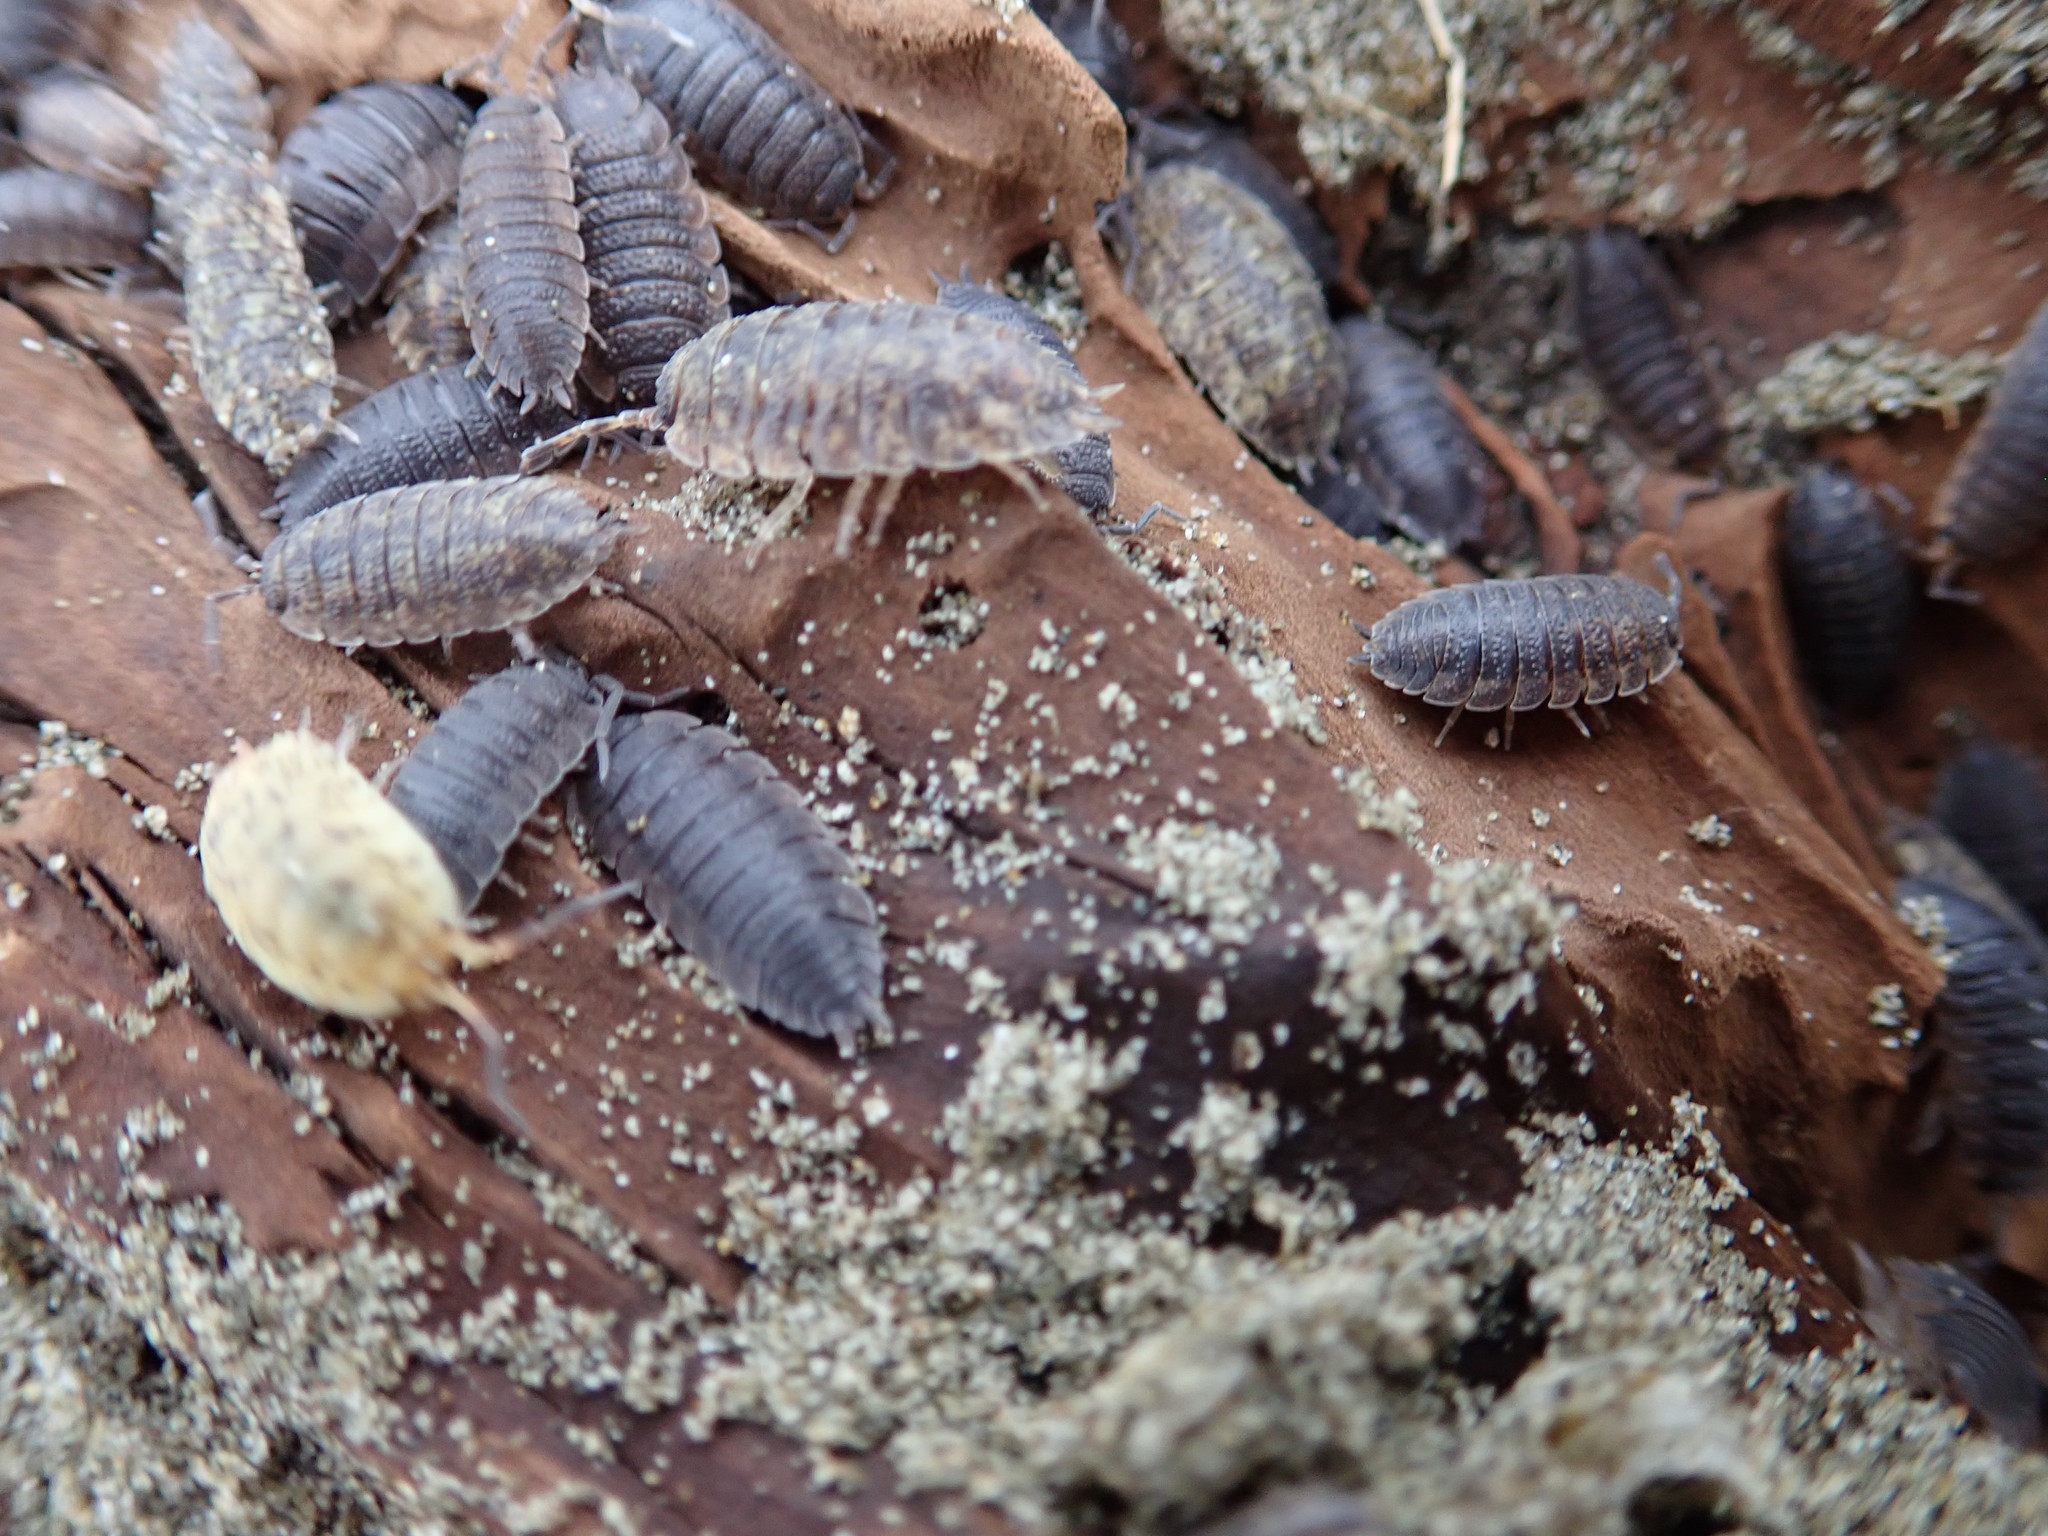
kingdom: Animalia
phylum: Arthropoda
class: Malacostraca
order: Isopoda
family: Porcellionidae
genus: Porcellio
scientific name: Porcellio scaber
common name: Common rough woodlouse
